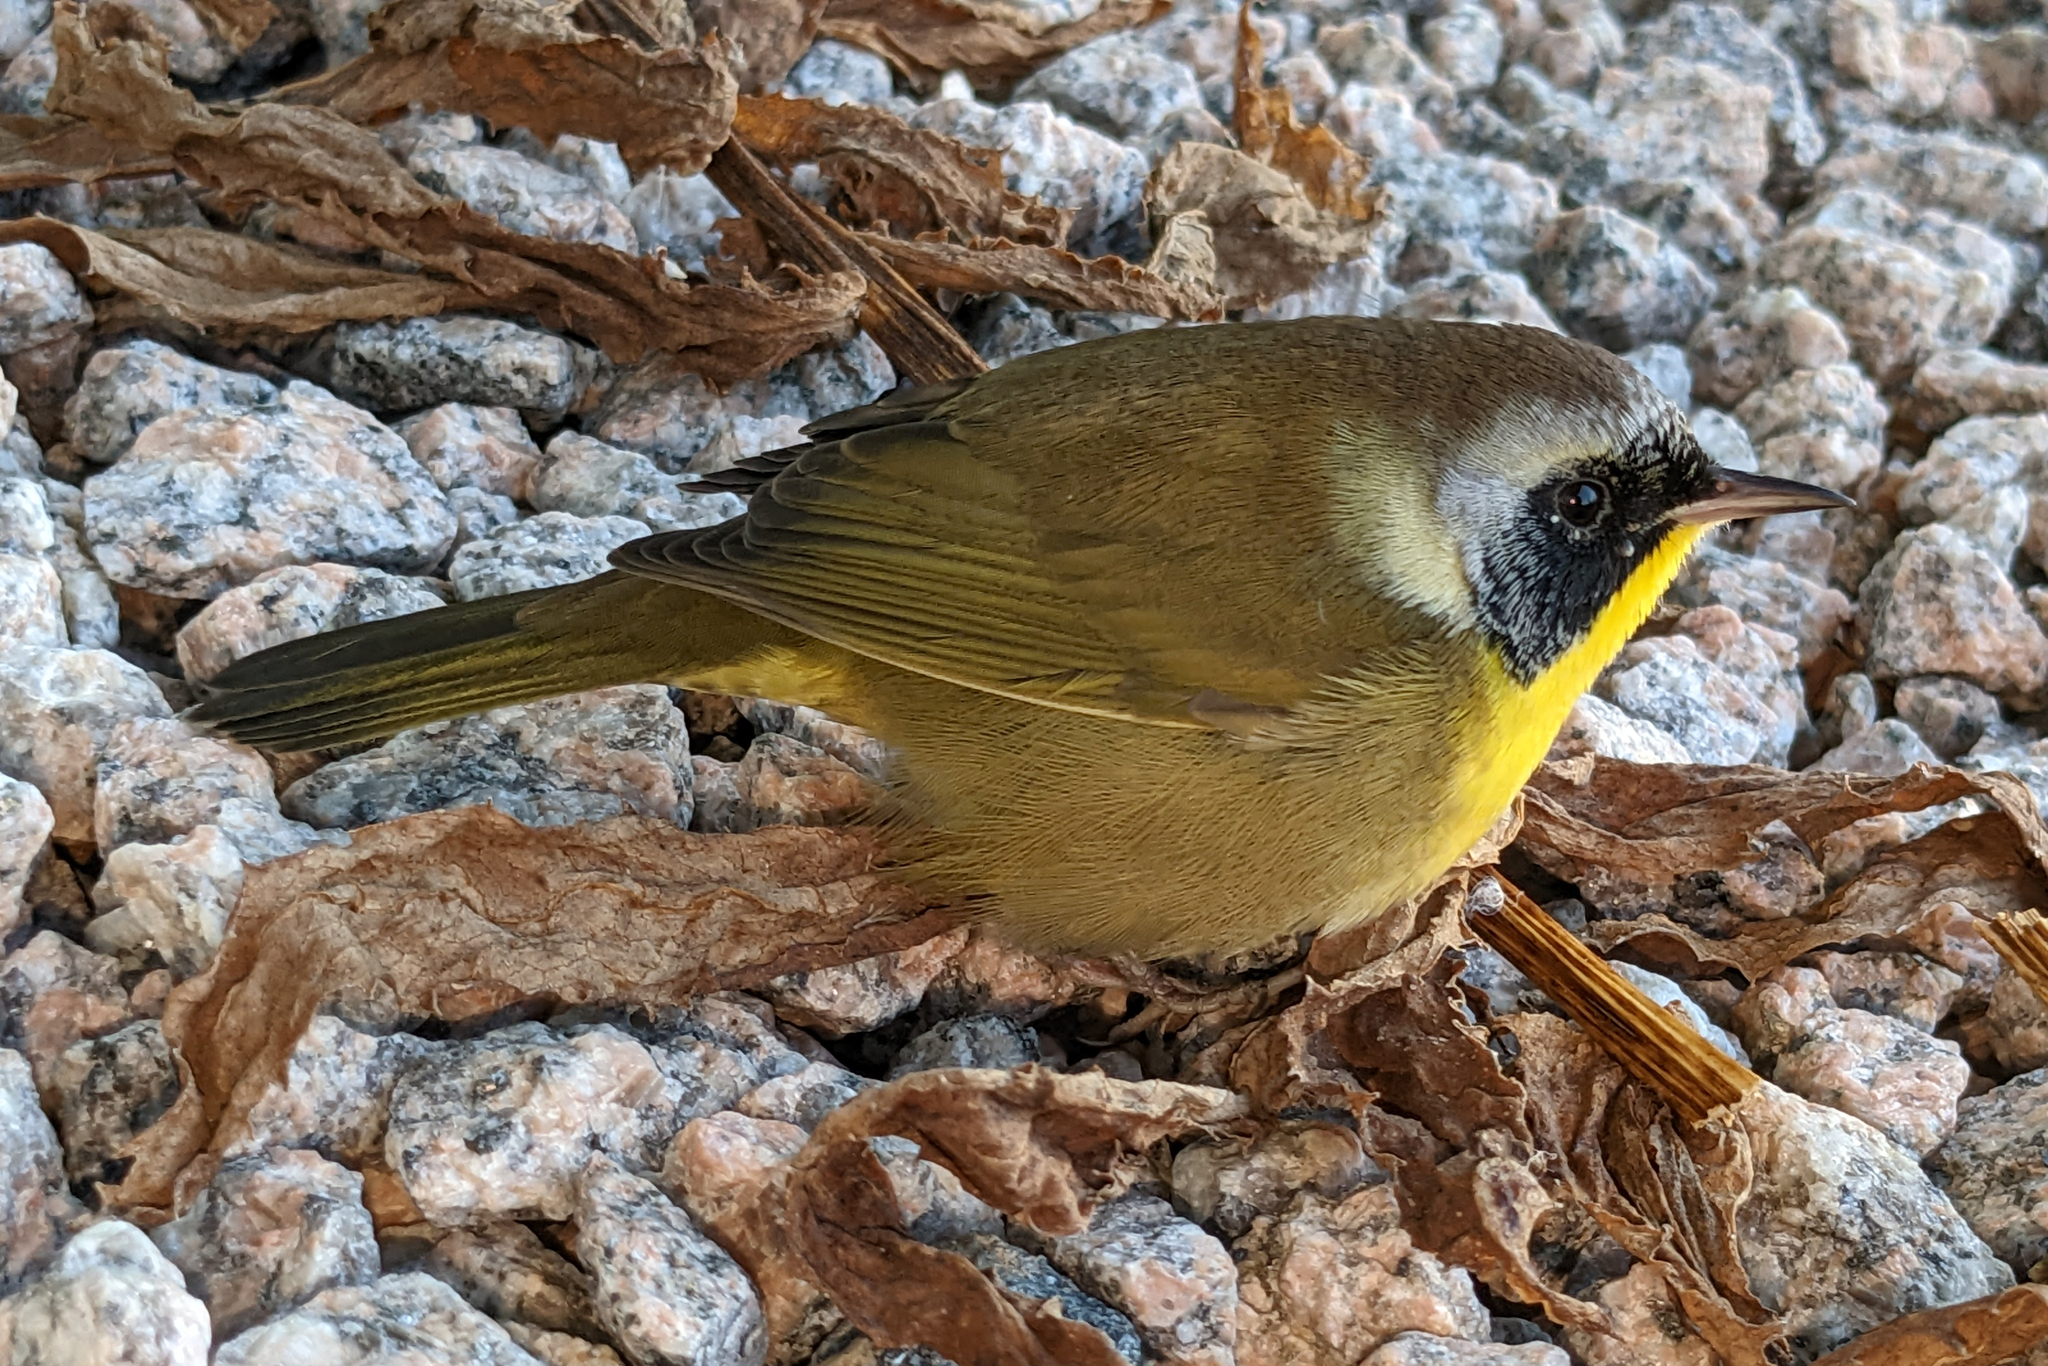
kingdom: Animalia
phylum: Chordata
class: Aves
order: Passeriformes
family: Parulidae
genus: Geothlypis
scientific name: Geothlypis trichas
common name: Common yellowthroat
